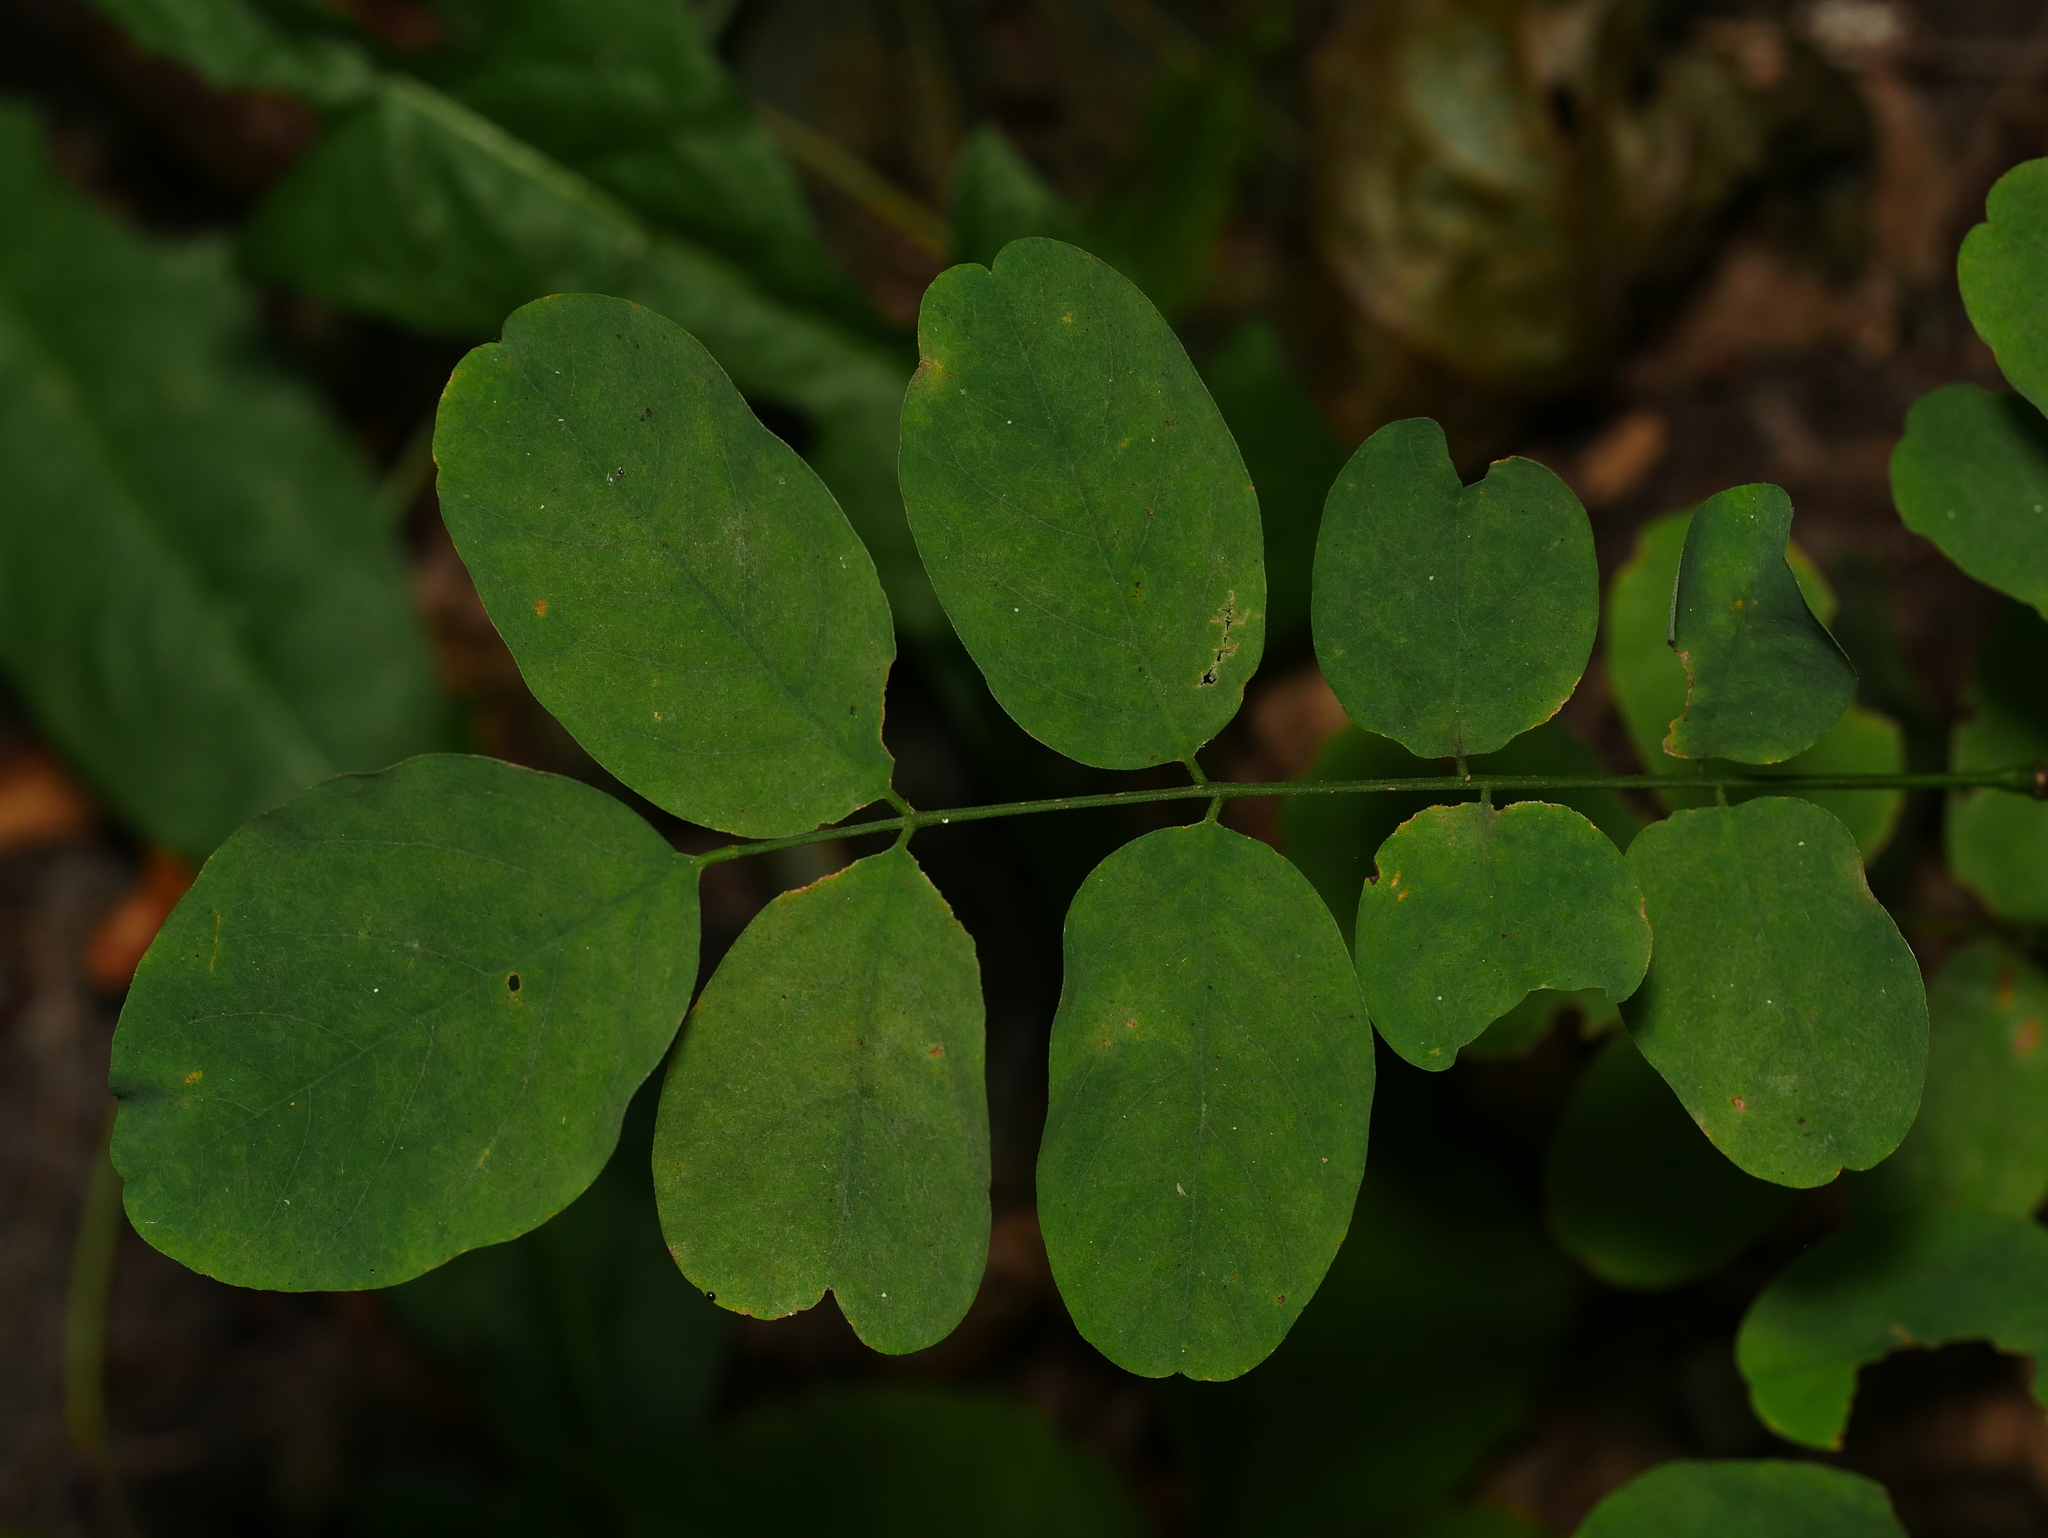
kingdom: Plantae
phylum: Tracheophyta
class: Magnoliopsida
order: Fabales
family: Fabaceae
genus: Robinia
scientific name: Robinia pseudoacacia
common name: Black locust
